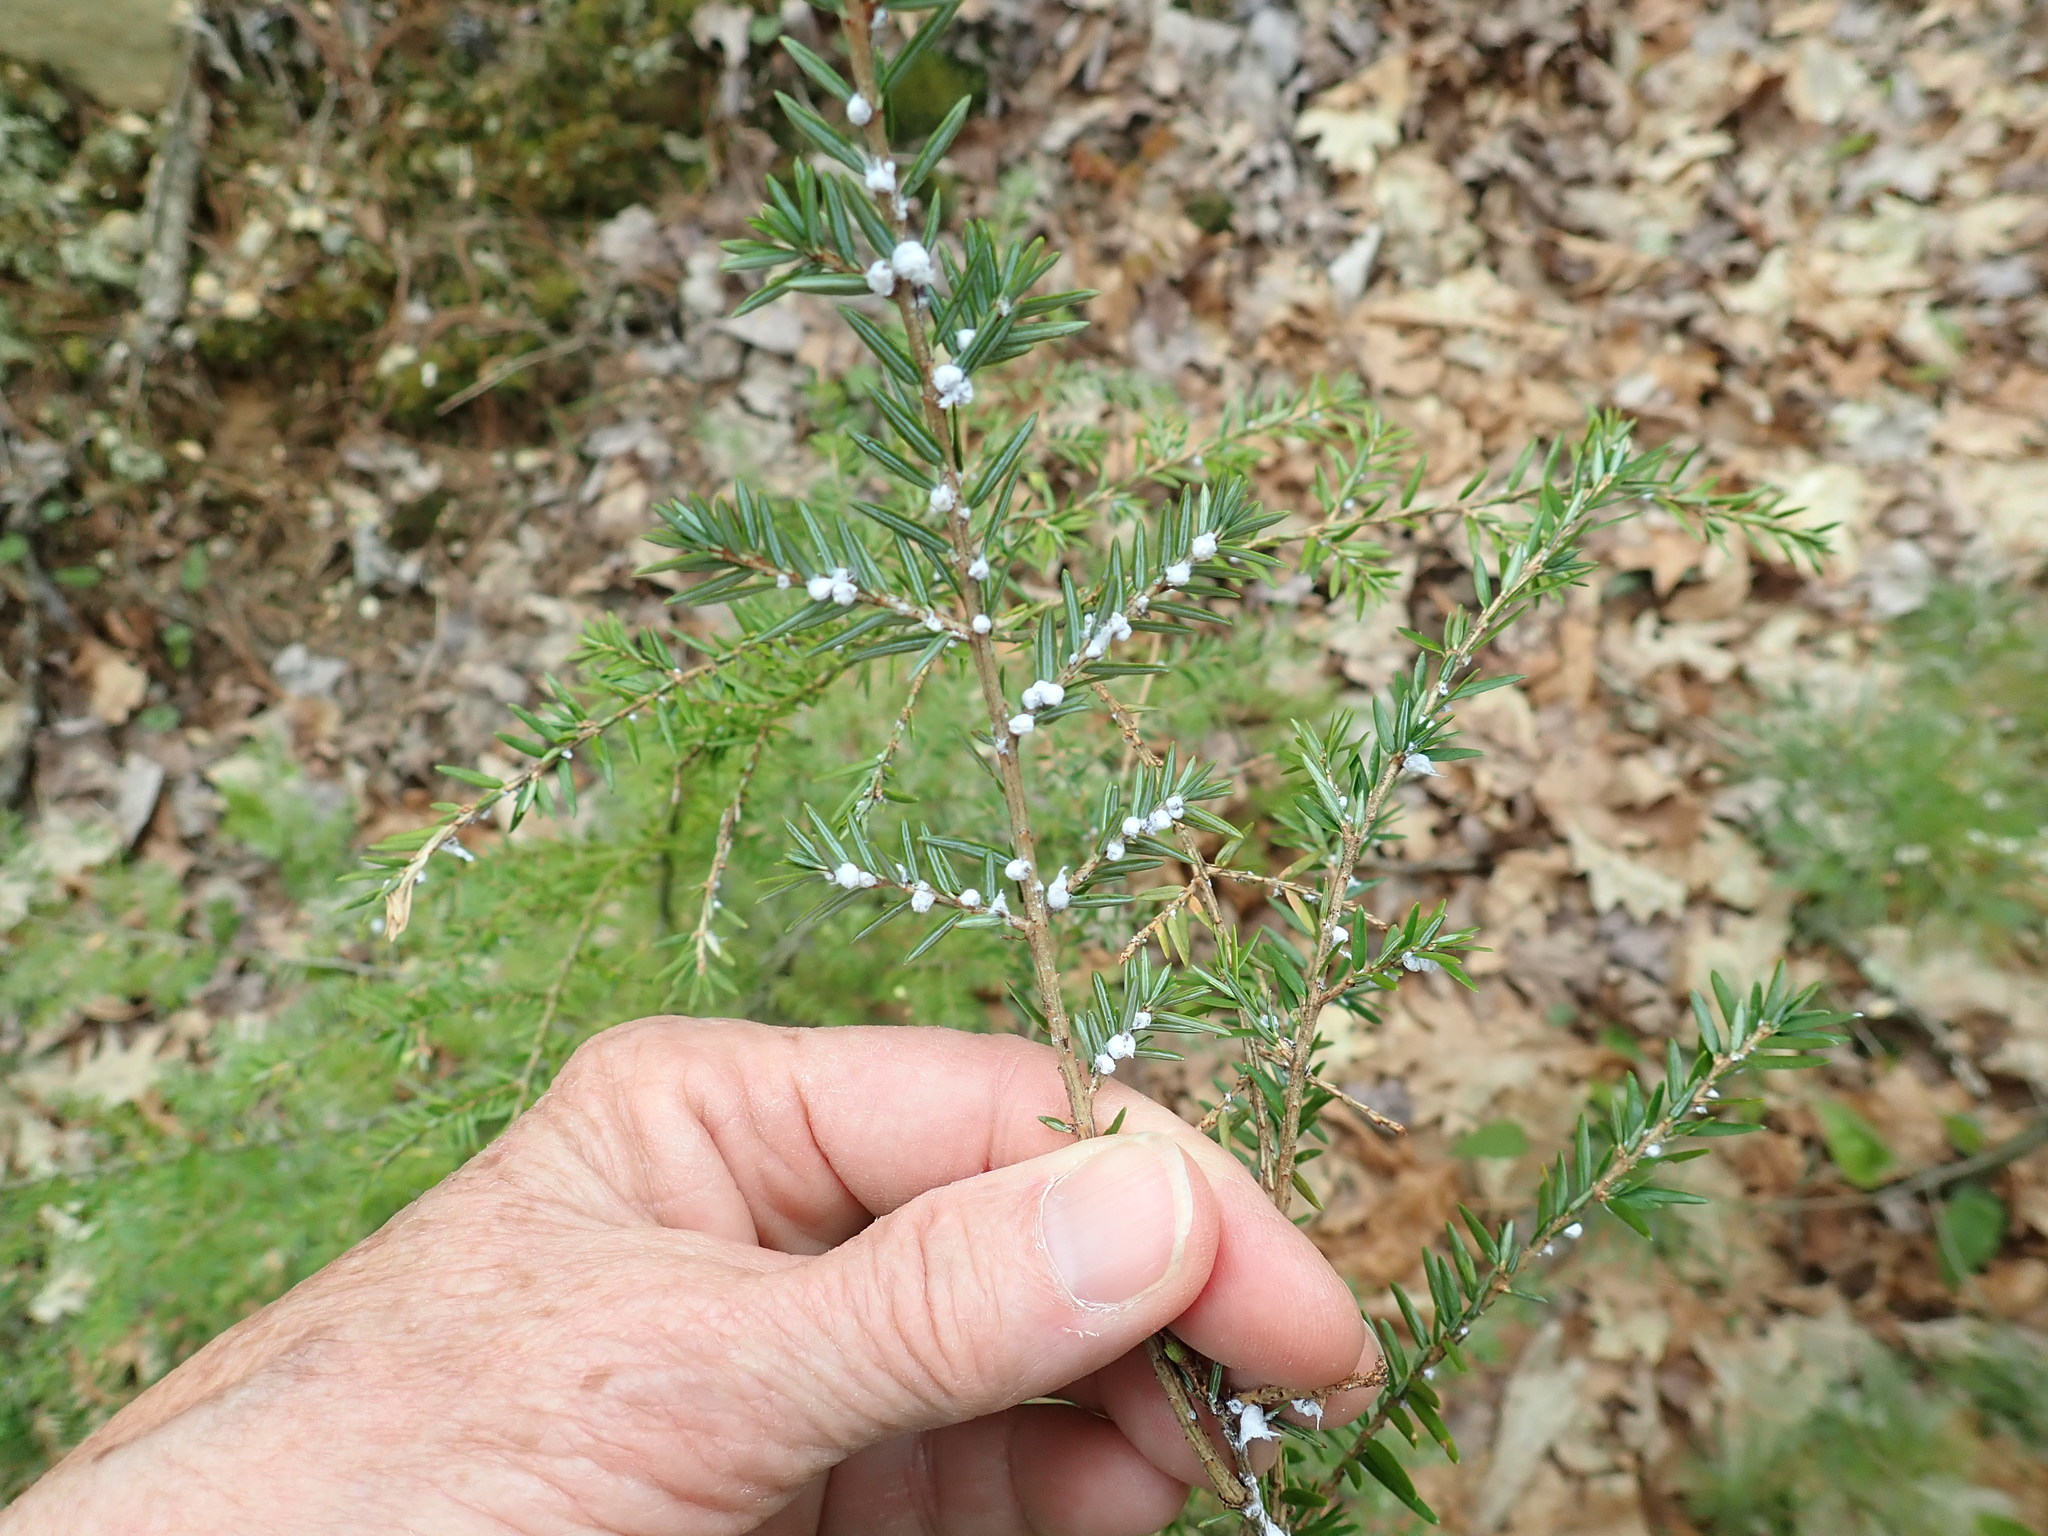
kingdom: Animalia
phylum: Arthropoda
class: Insecta
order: Hemiptera
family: Adelgidae
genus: Adelges
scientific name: Adelges tsugae
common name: Hemlock woolly adelgid
